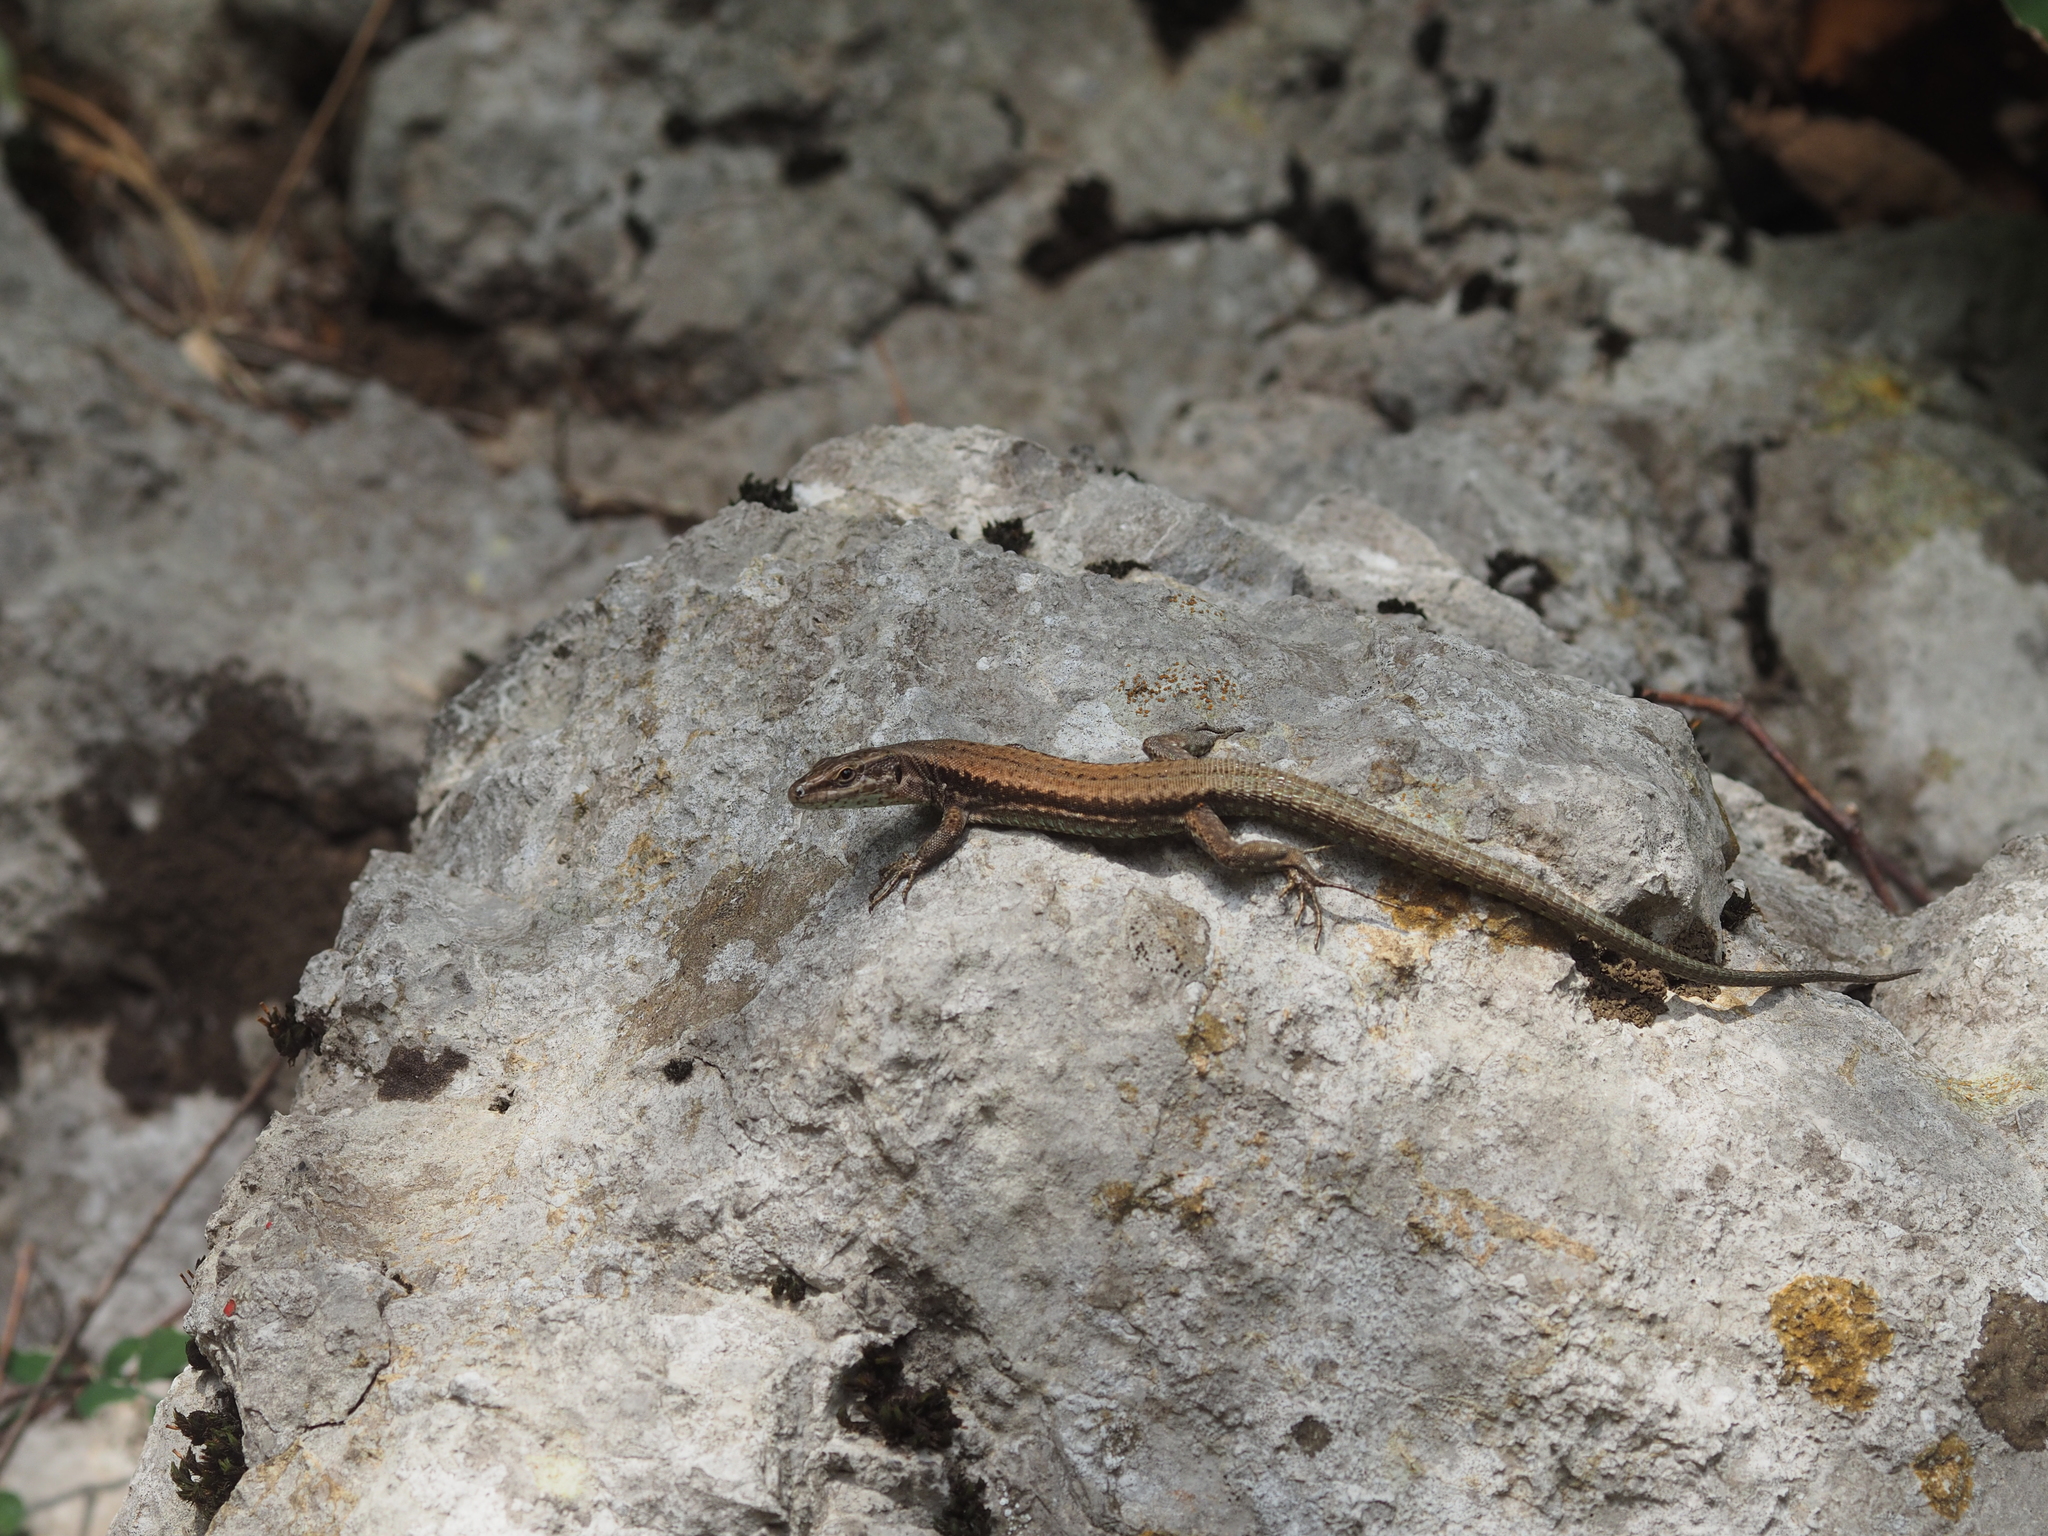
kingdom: Animalia
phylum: Chordata
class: Squamata
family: Lacertidae
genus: Podarcis
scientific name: Podarcis muralis
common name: Common wall lizard
